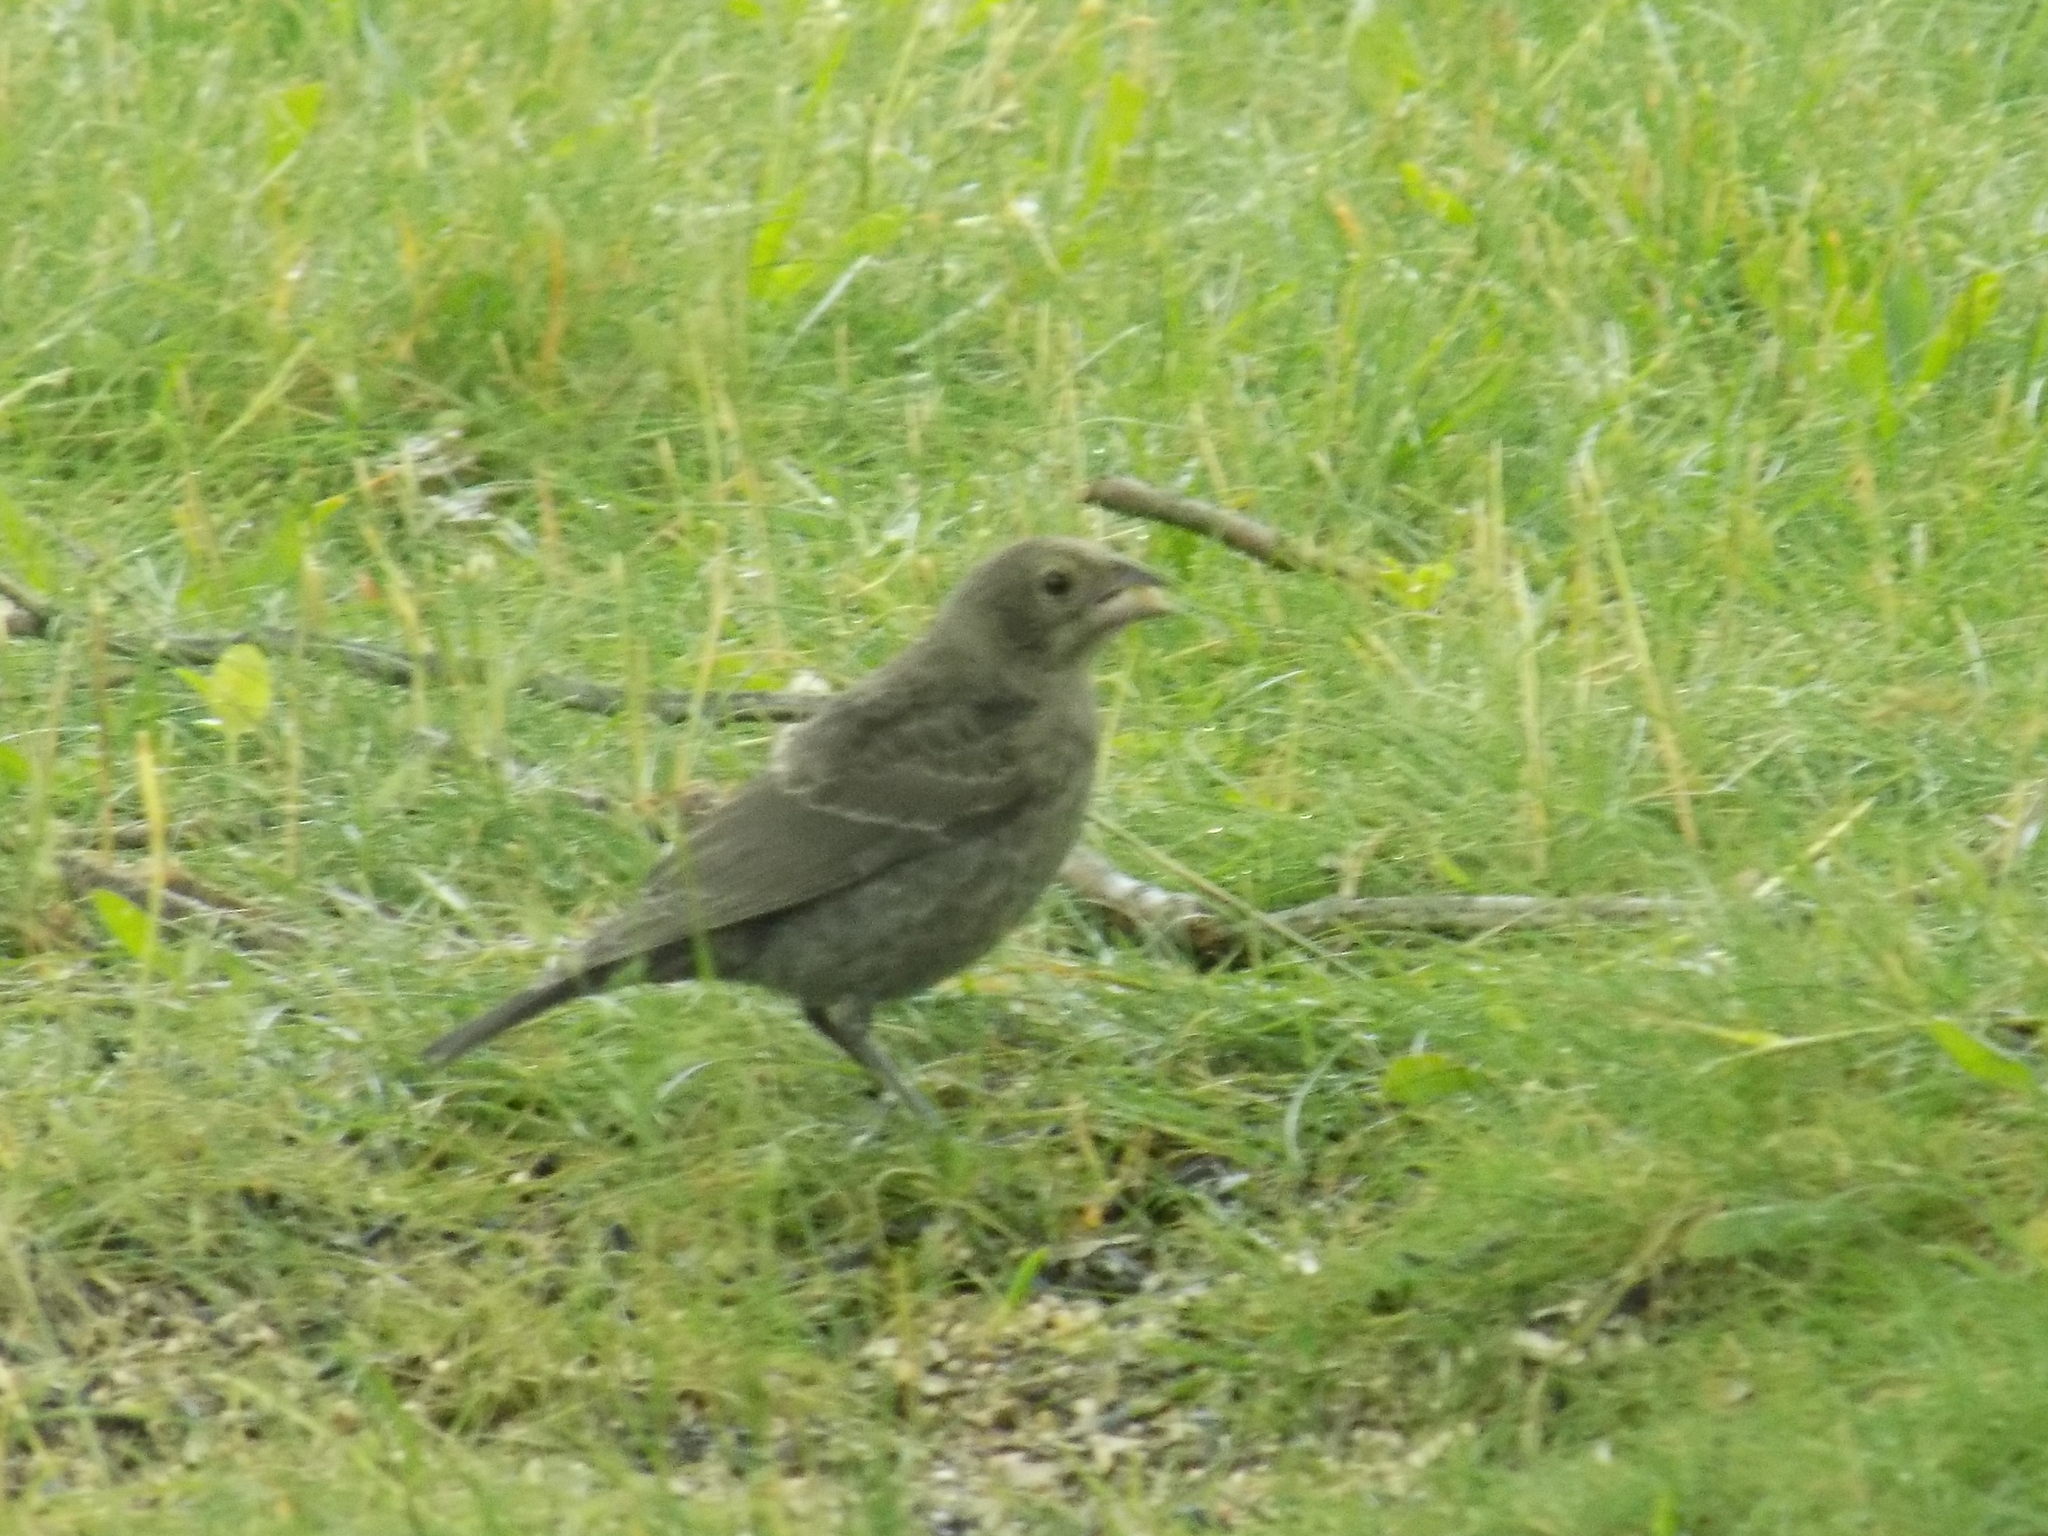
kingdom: Animalia
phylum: Chordata
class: Aves
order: Passeriformes
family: Icteridae
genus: Molothrus
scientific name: Molothrus ater
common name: Brown-headed cowbird
